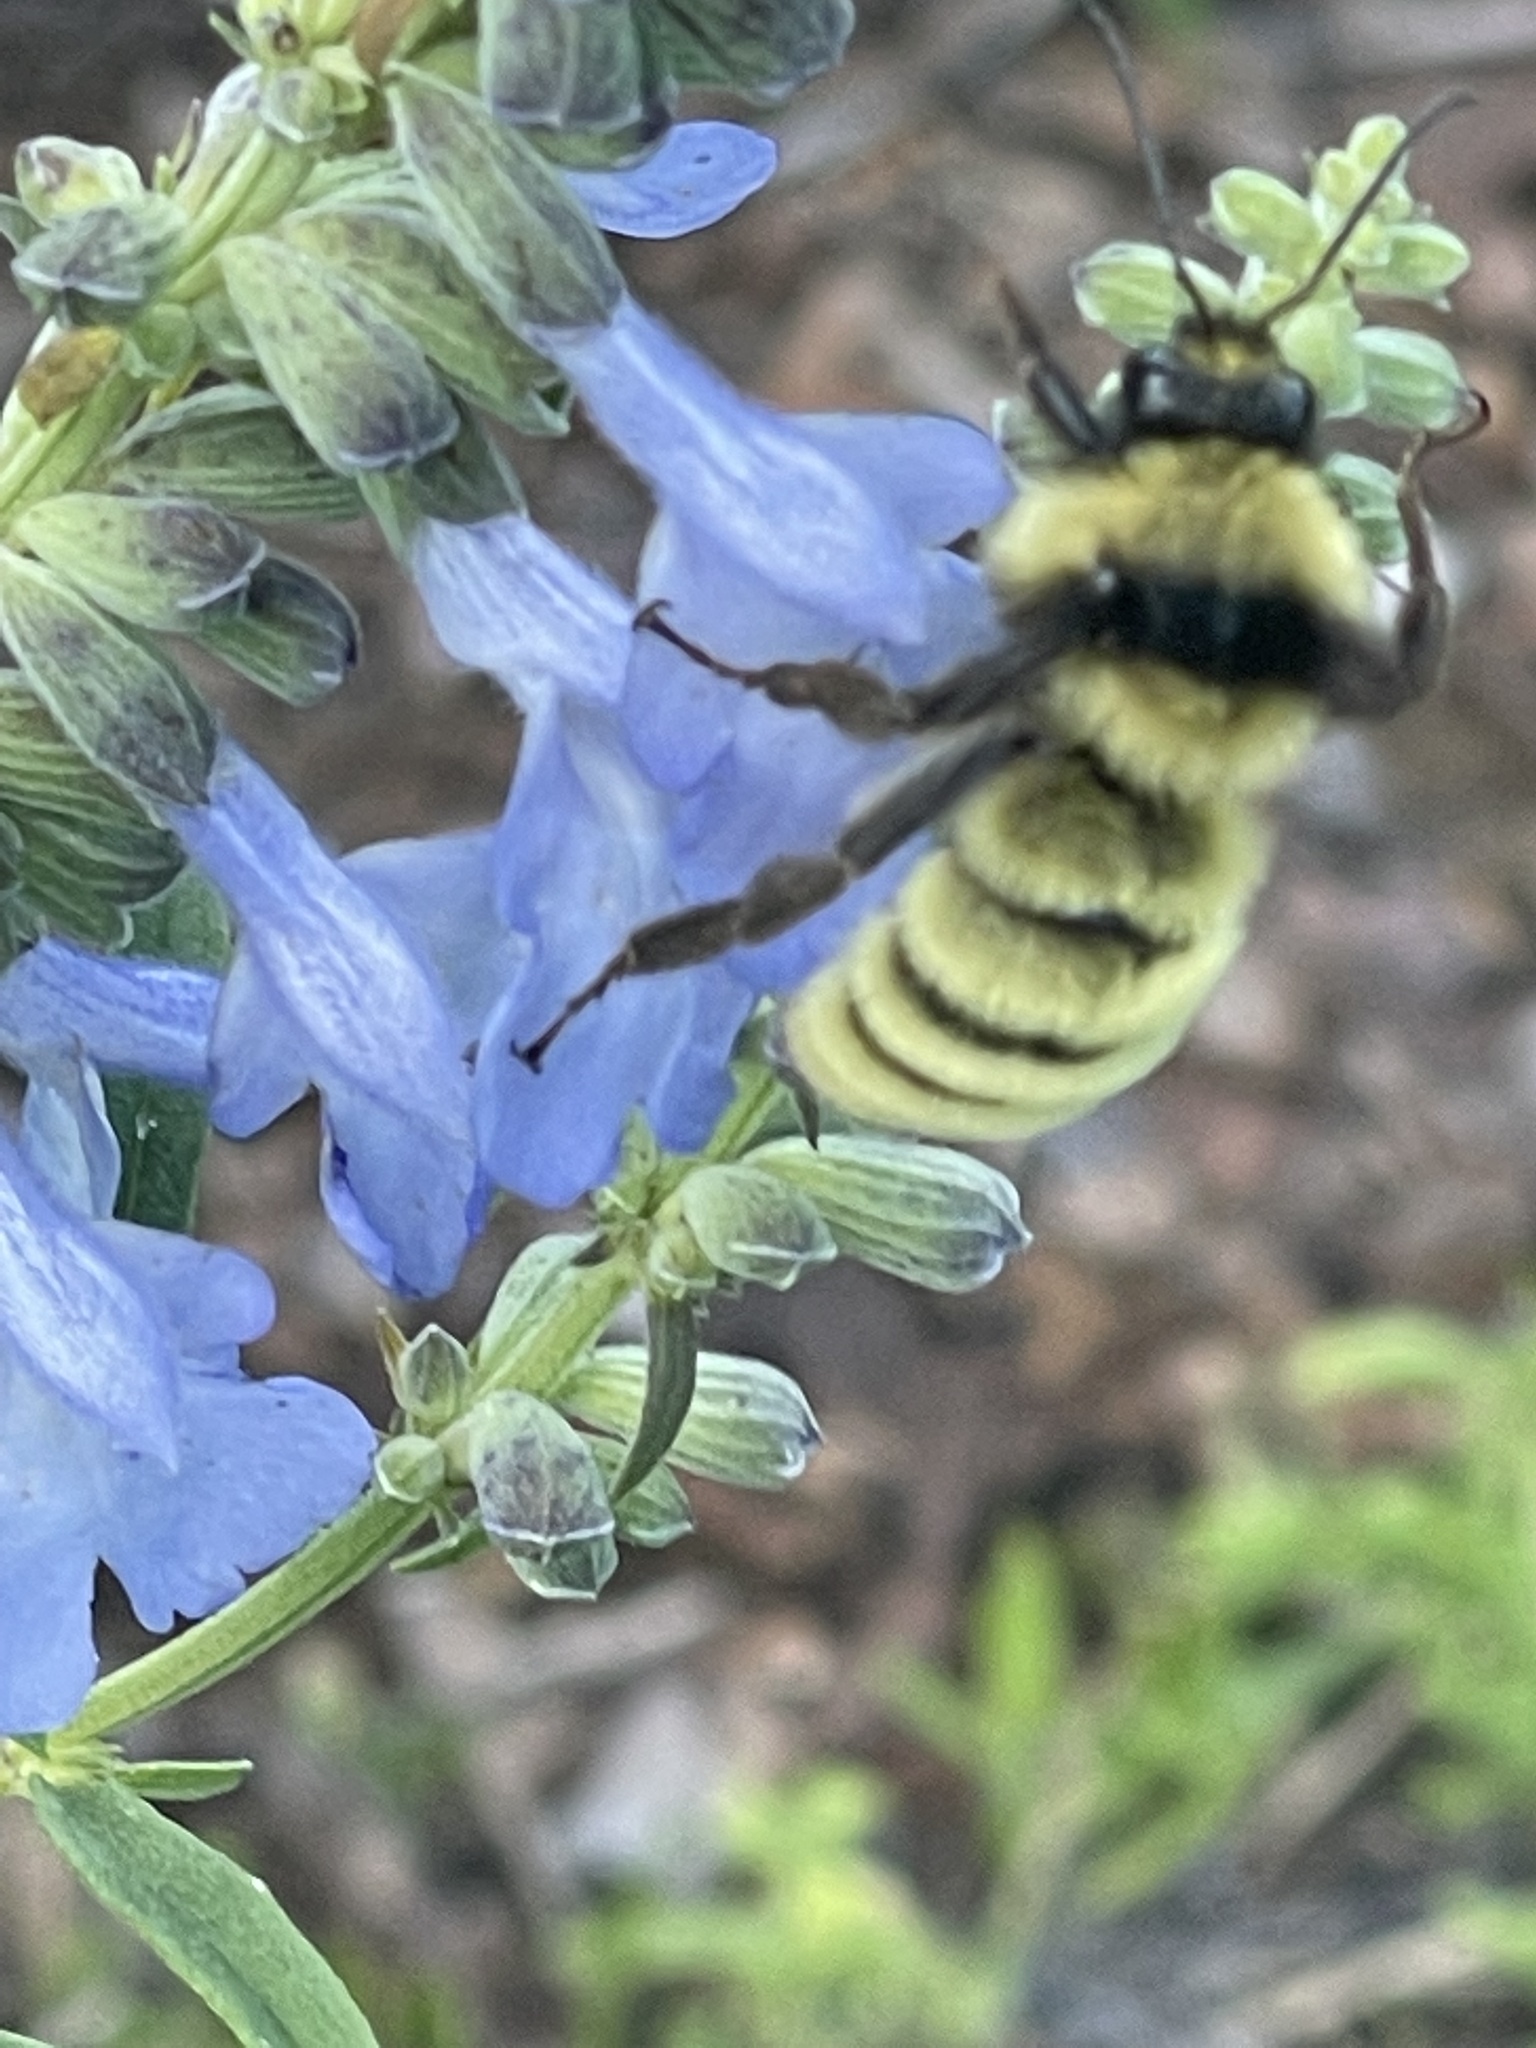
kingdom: Animalia
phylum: Arthropoda
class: Insecta
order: Hymenoptera
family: Apidae
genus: Bombus
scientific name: Bombus pensylvanicus
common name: Bumble bee
